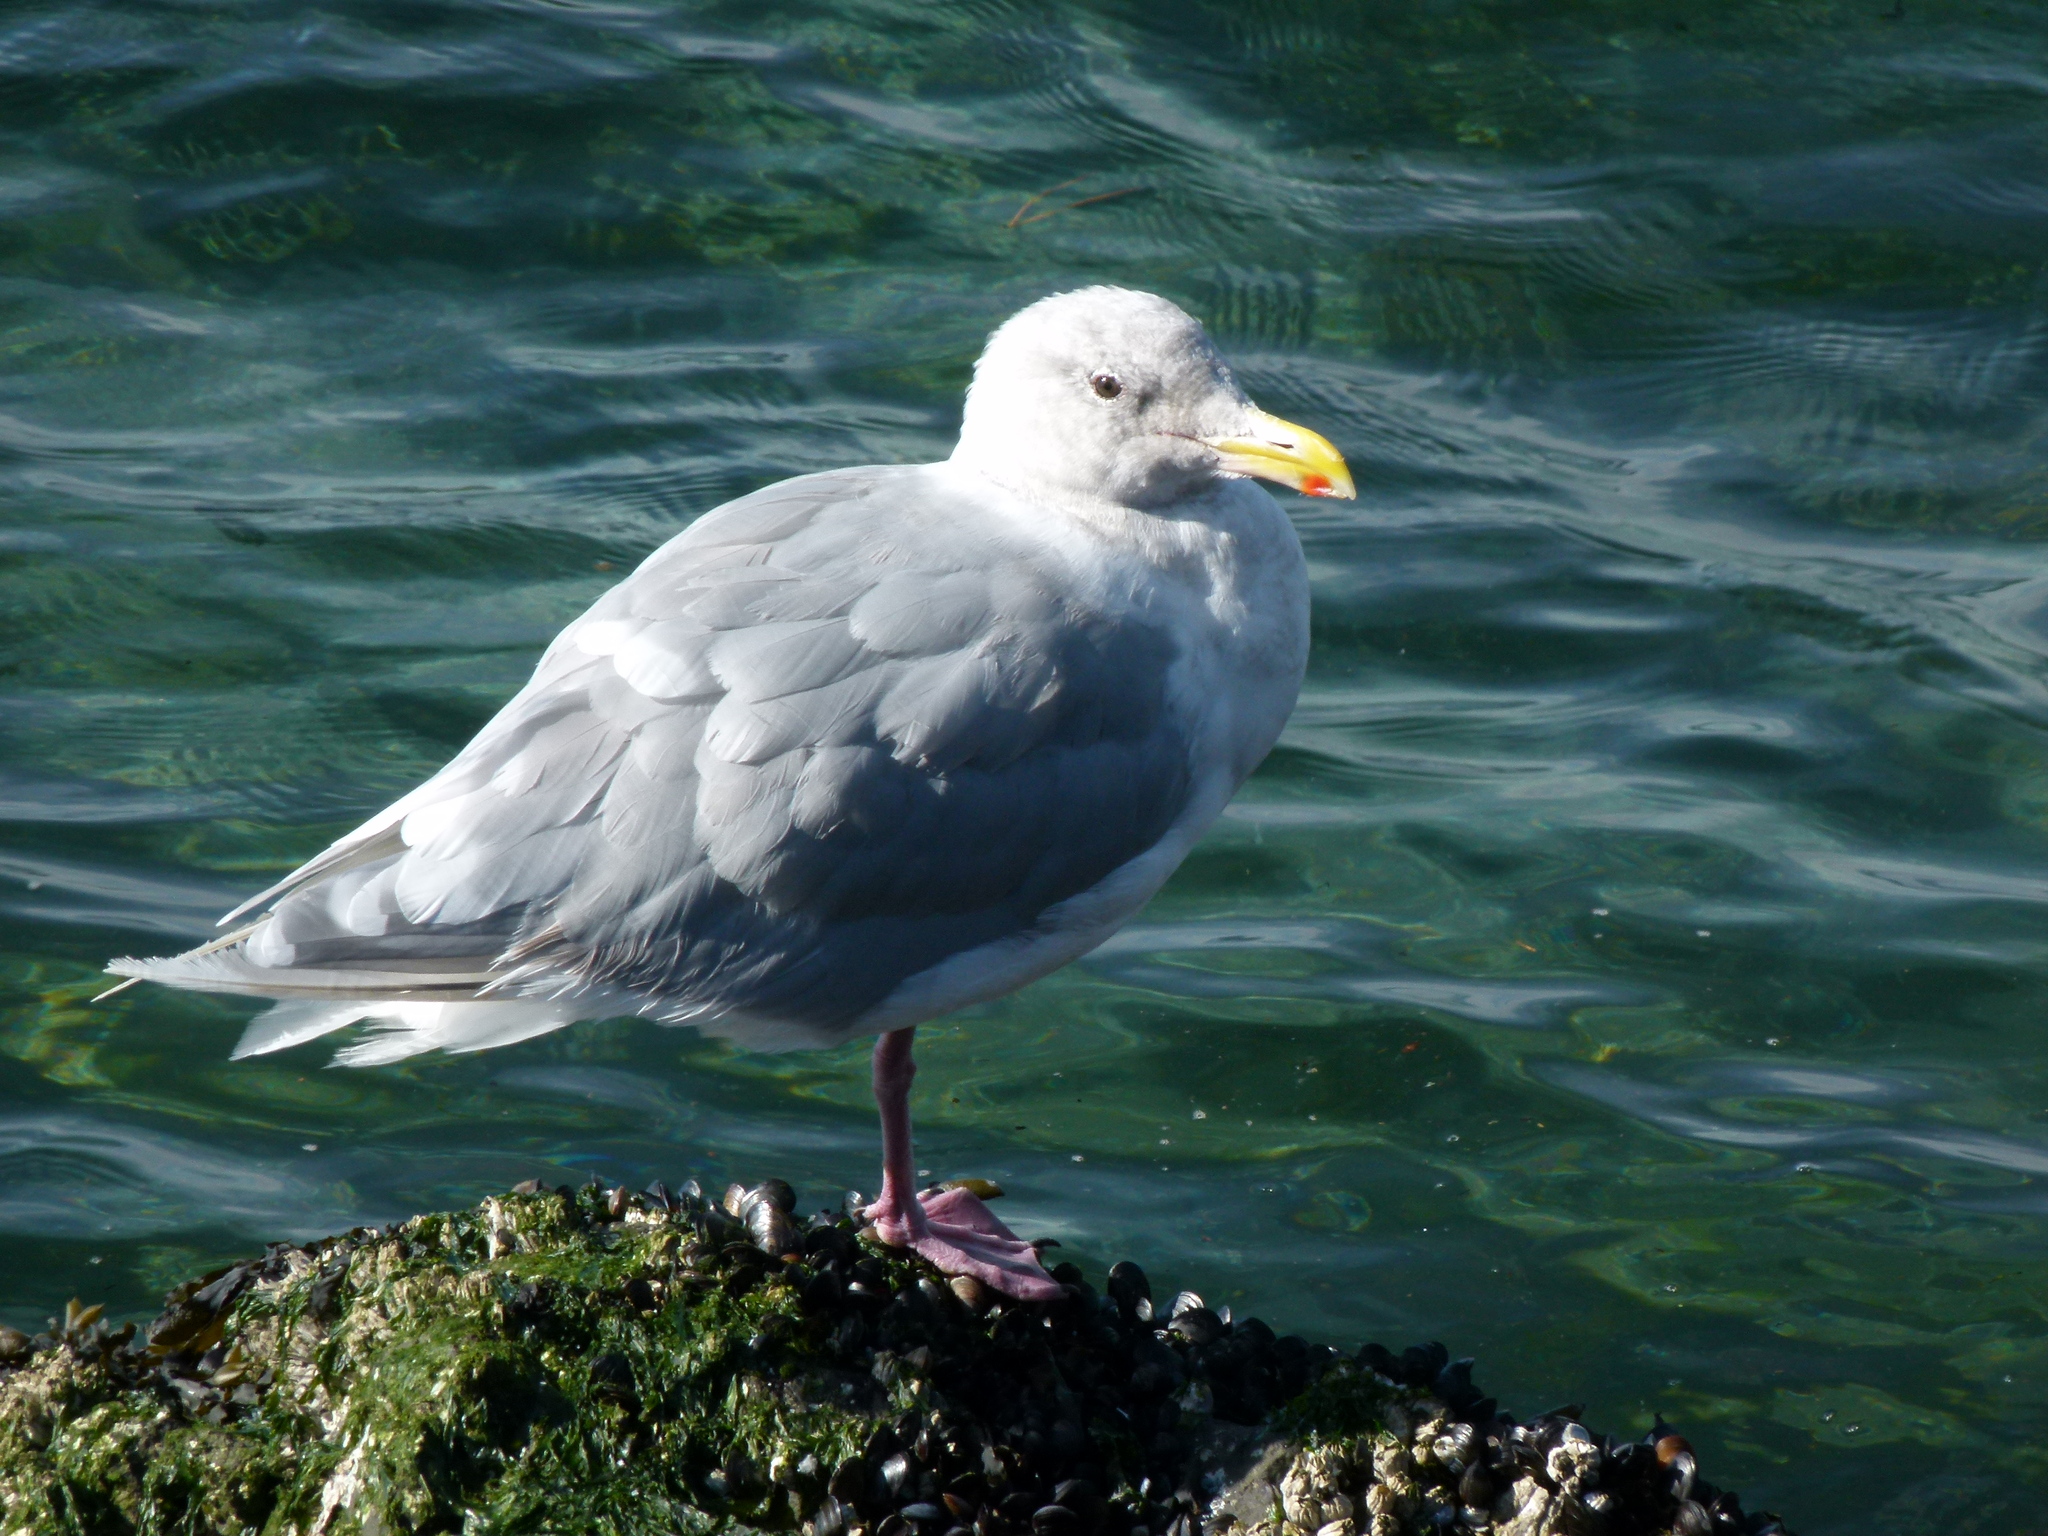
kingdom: Animalia
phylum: Chordata
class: Aves
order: Charadriiformes
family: Laridae
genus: Larus
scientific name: Larus glaucescens
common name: Glaucous-winged gull
